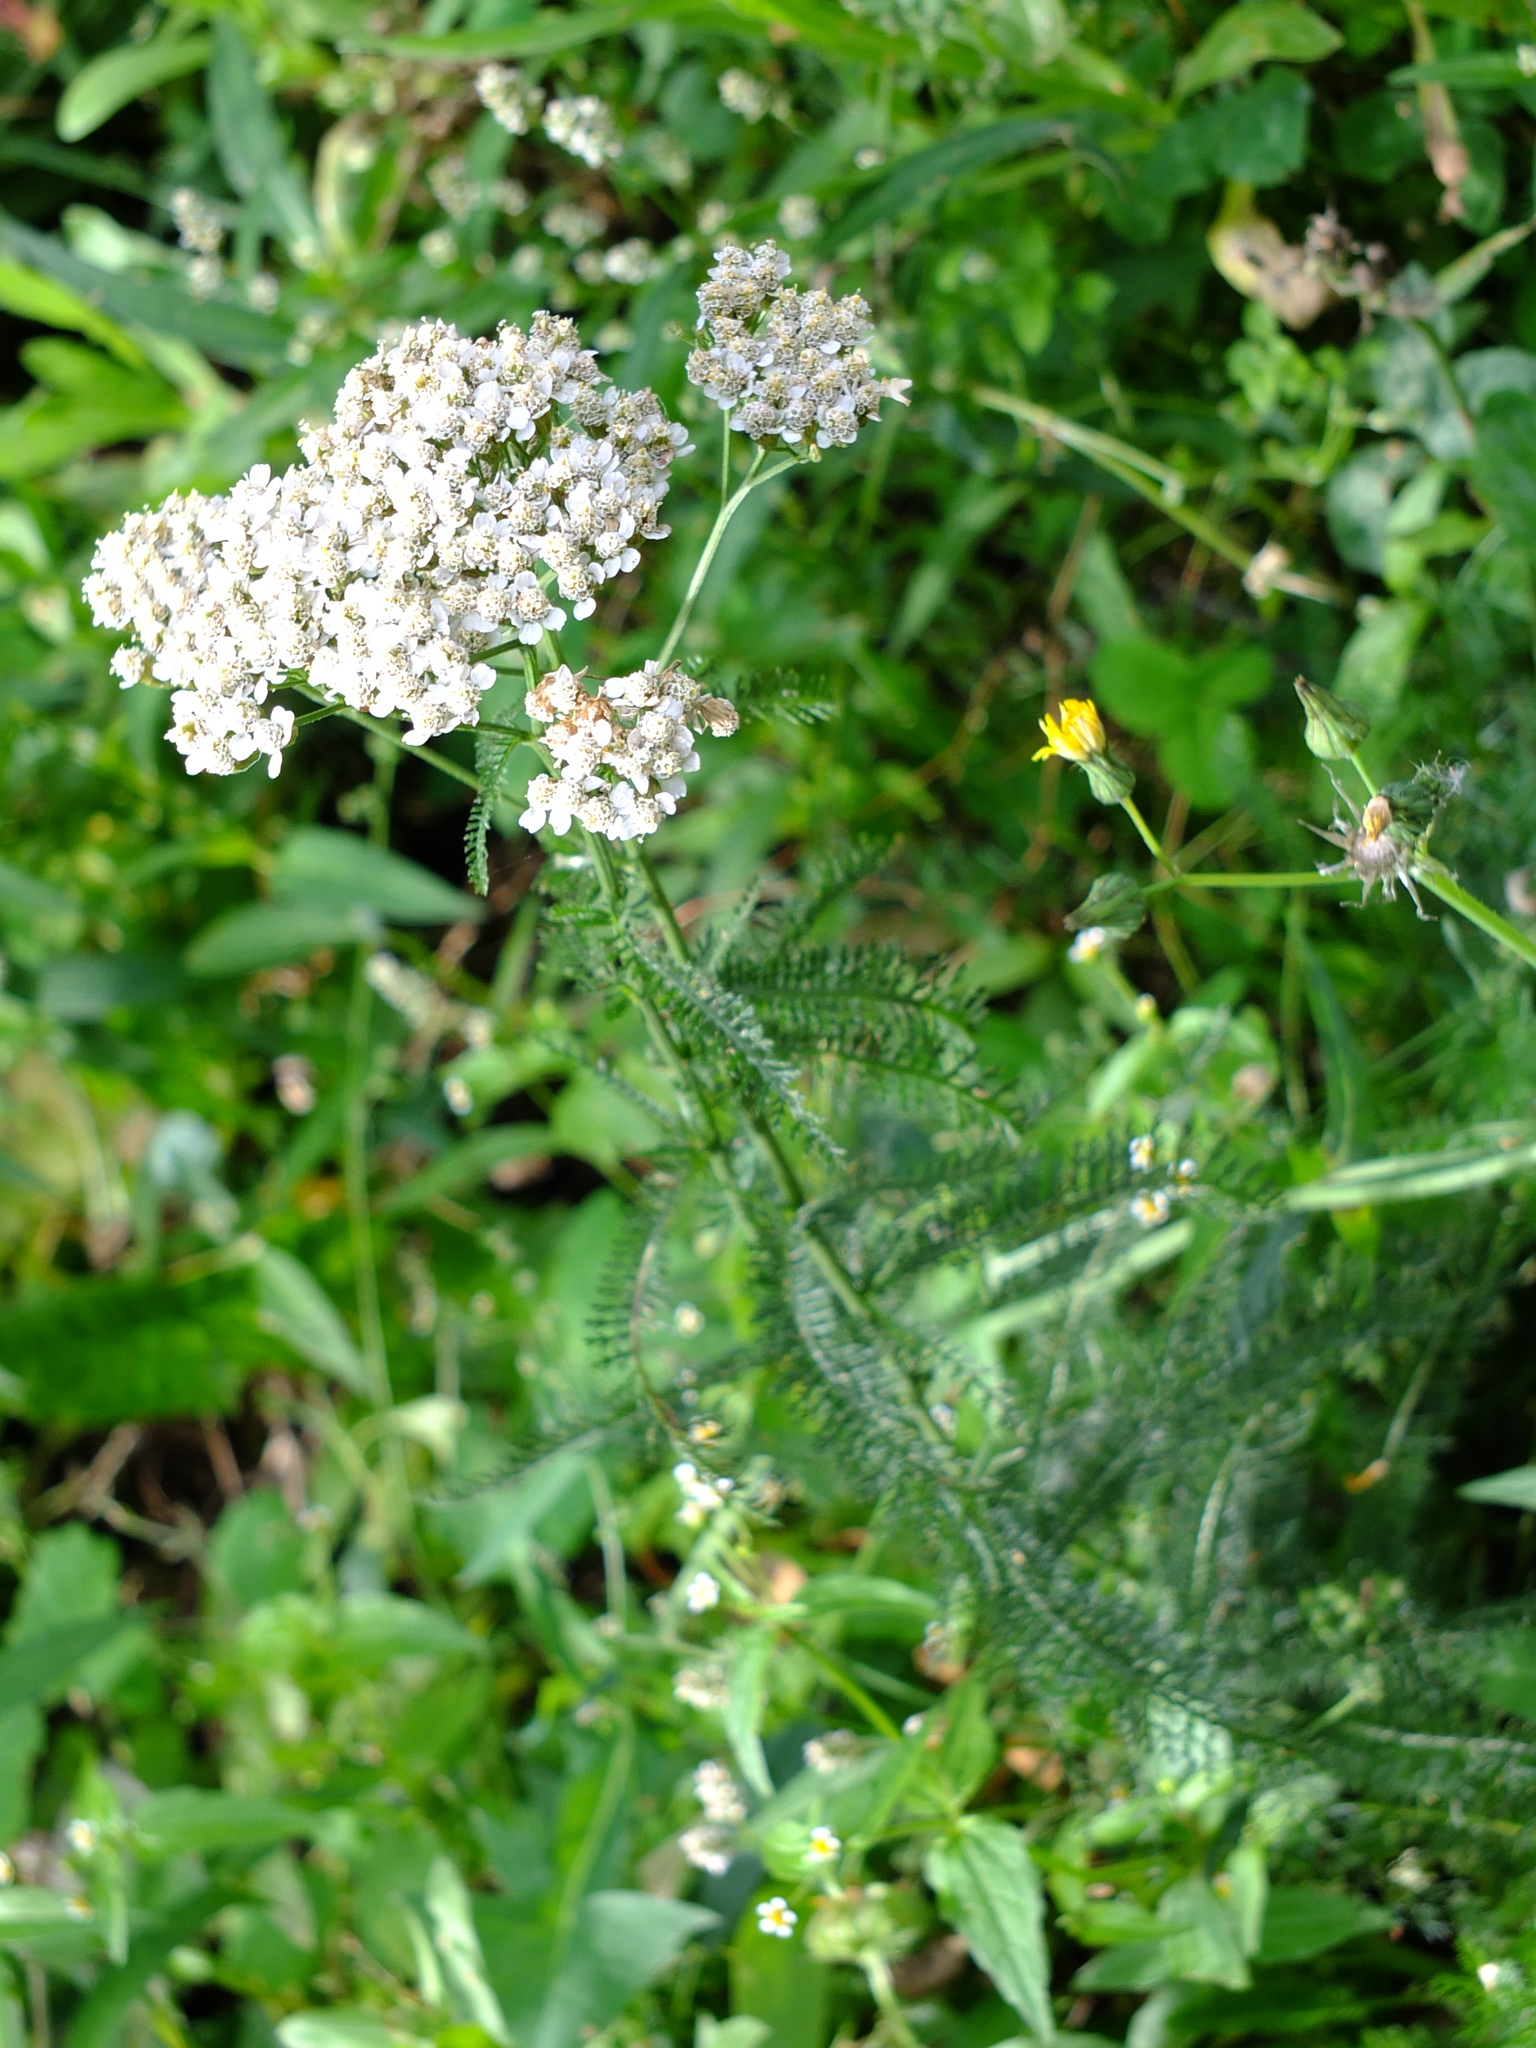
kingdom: Plantae
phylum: Tracheophyta
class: Magnoliopsida
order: Asterales
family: Asteraceae
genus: Achillea
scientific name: Achillea millefolium
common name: Yarrow
